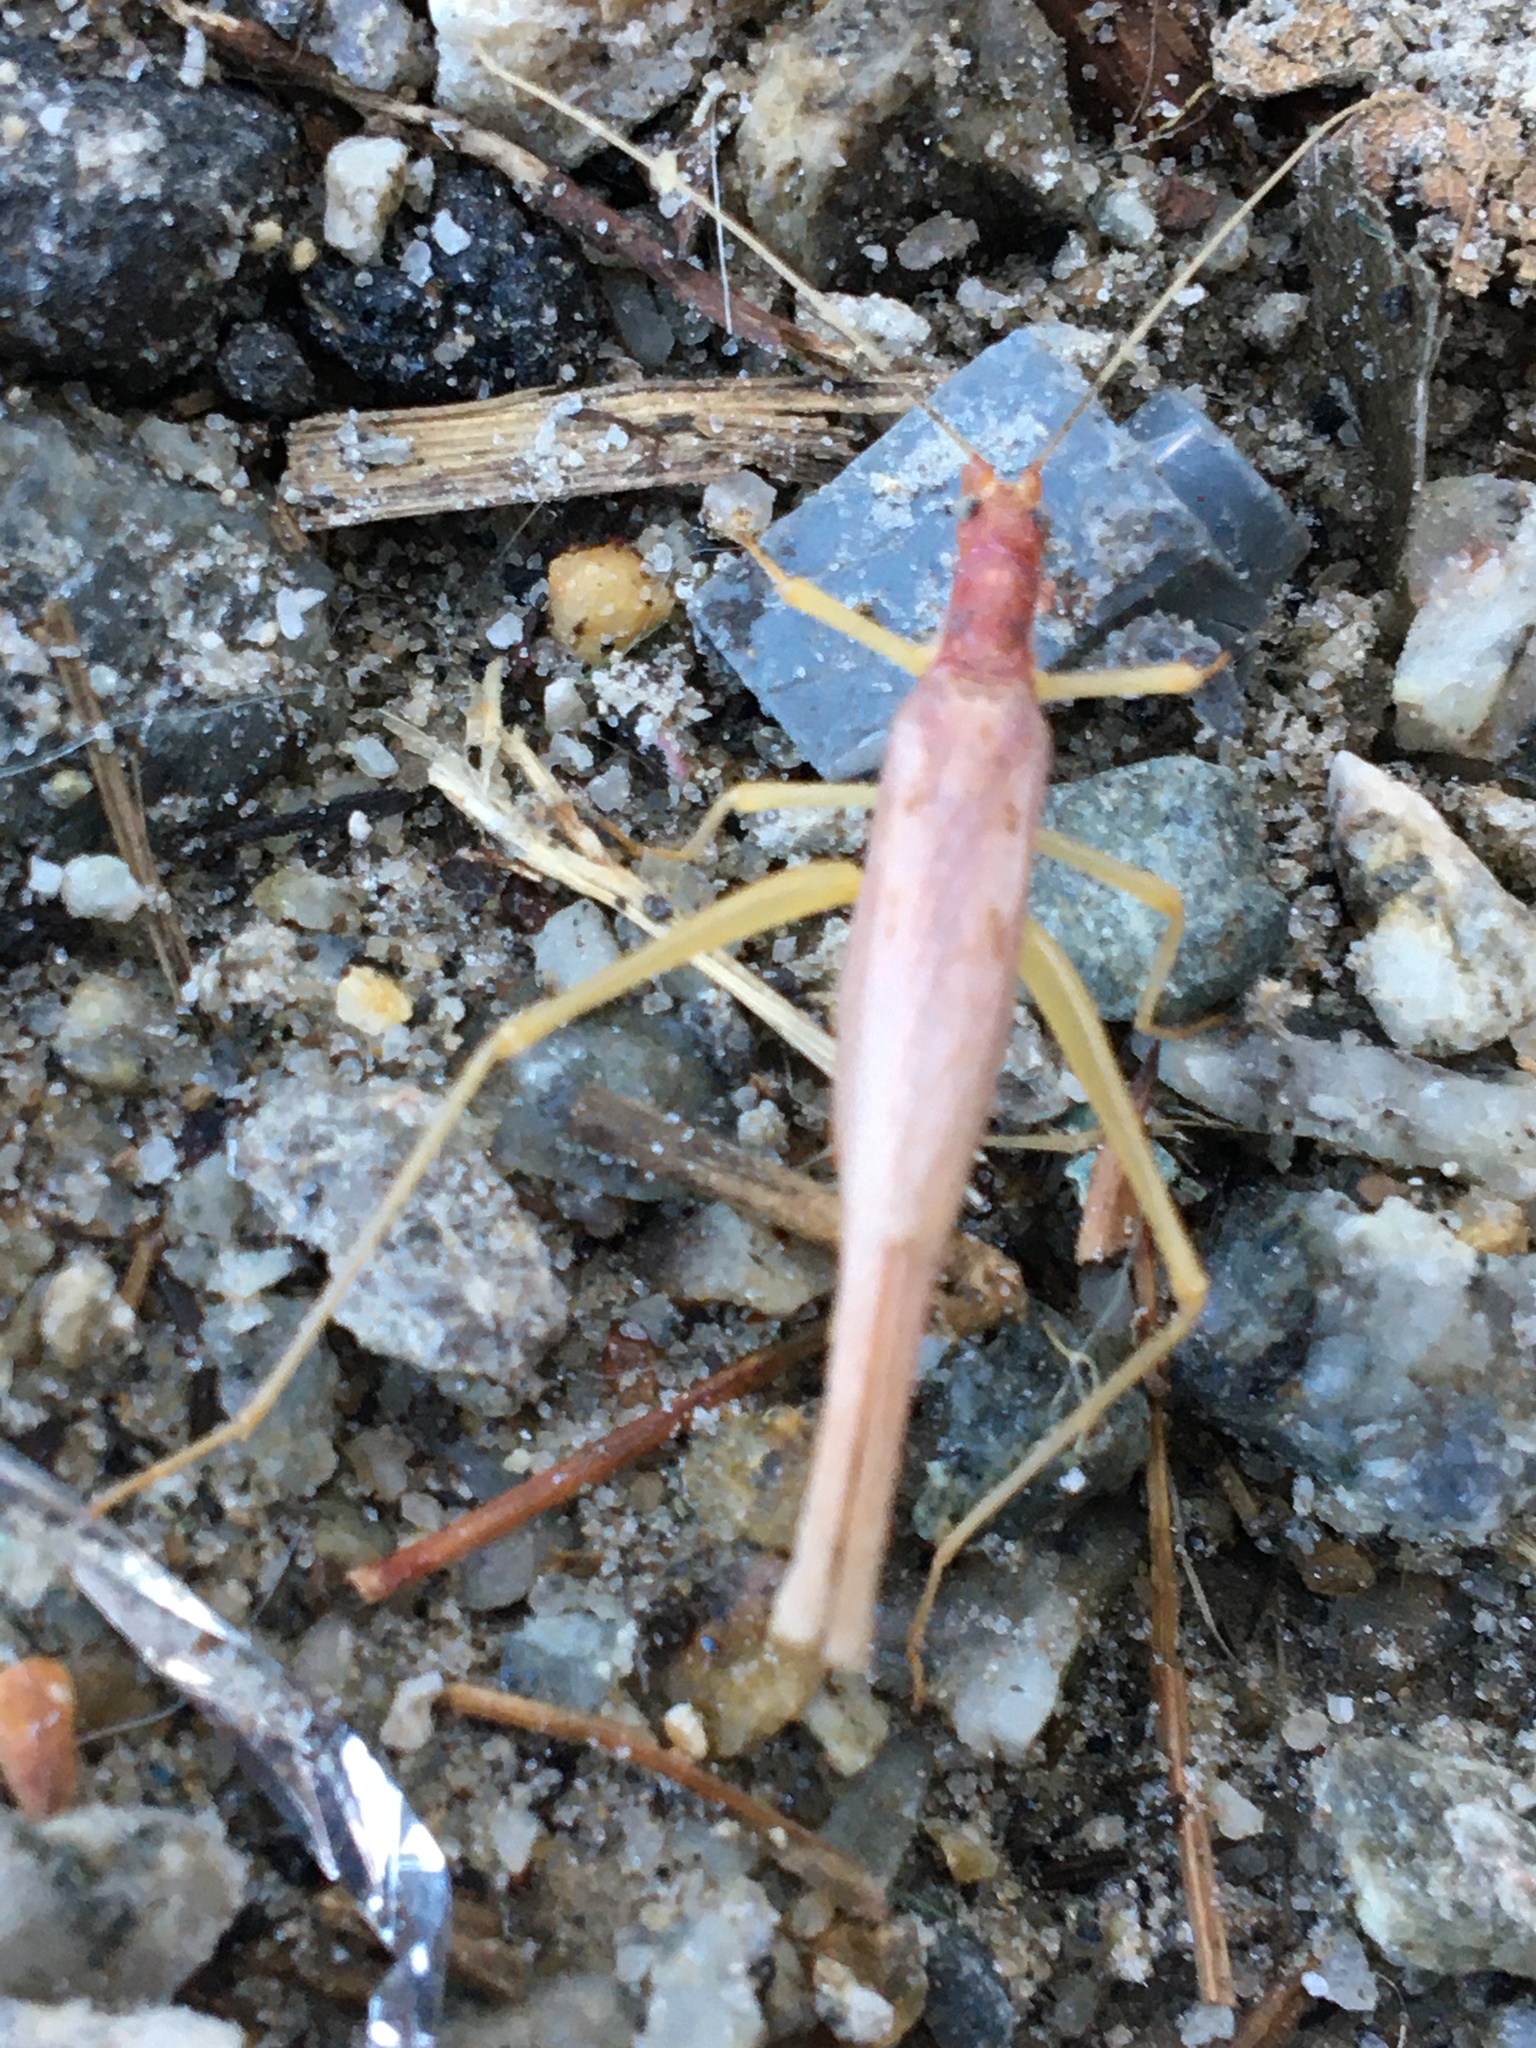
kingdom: Animalia
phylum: Arthropoda
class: Insecta
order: Orthoptera
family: Gryllidae
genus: Neoxabea
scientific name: Neoxabea bipunctata
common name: Two-spotted tree cricket
